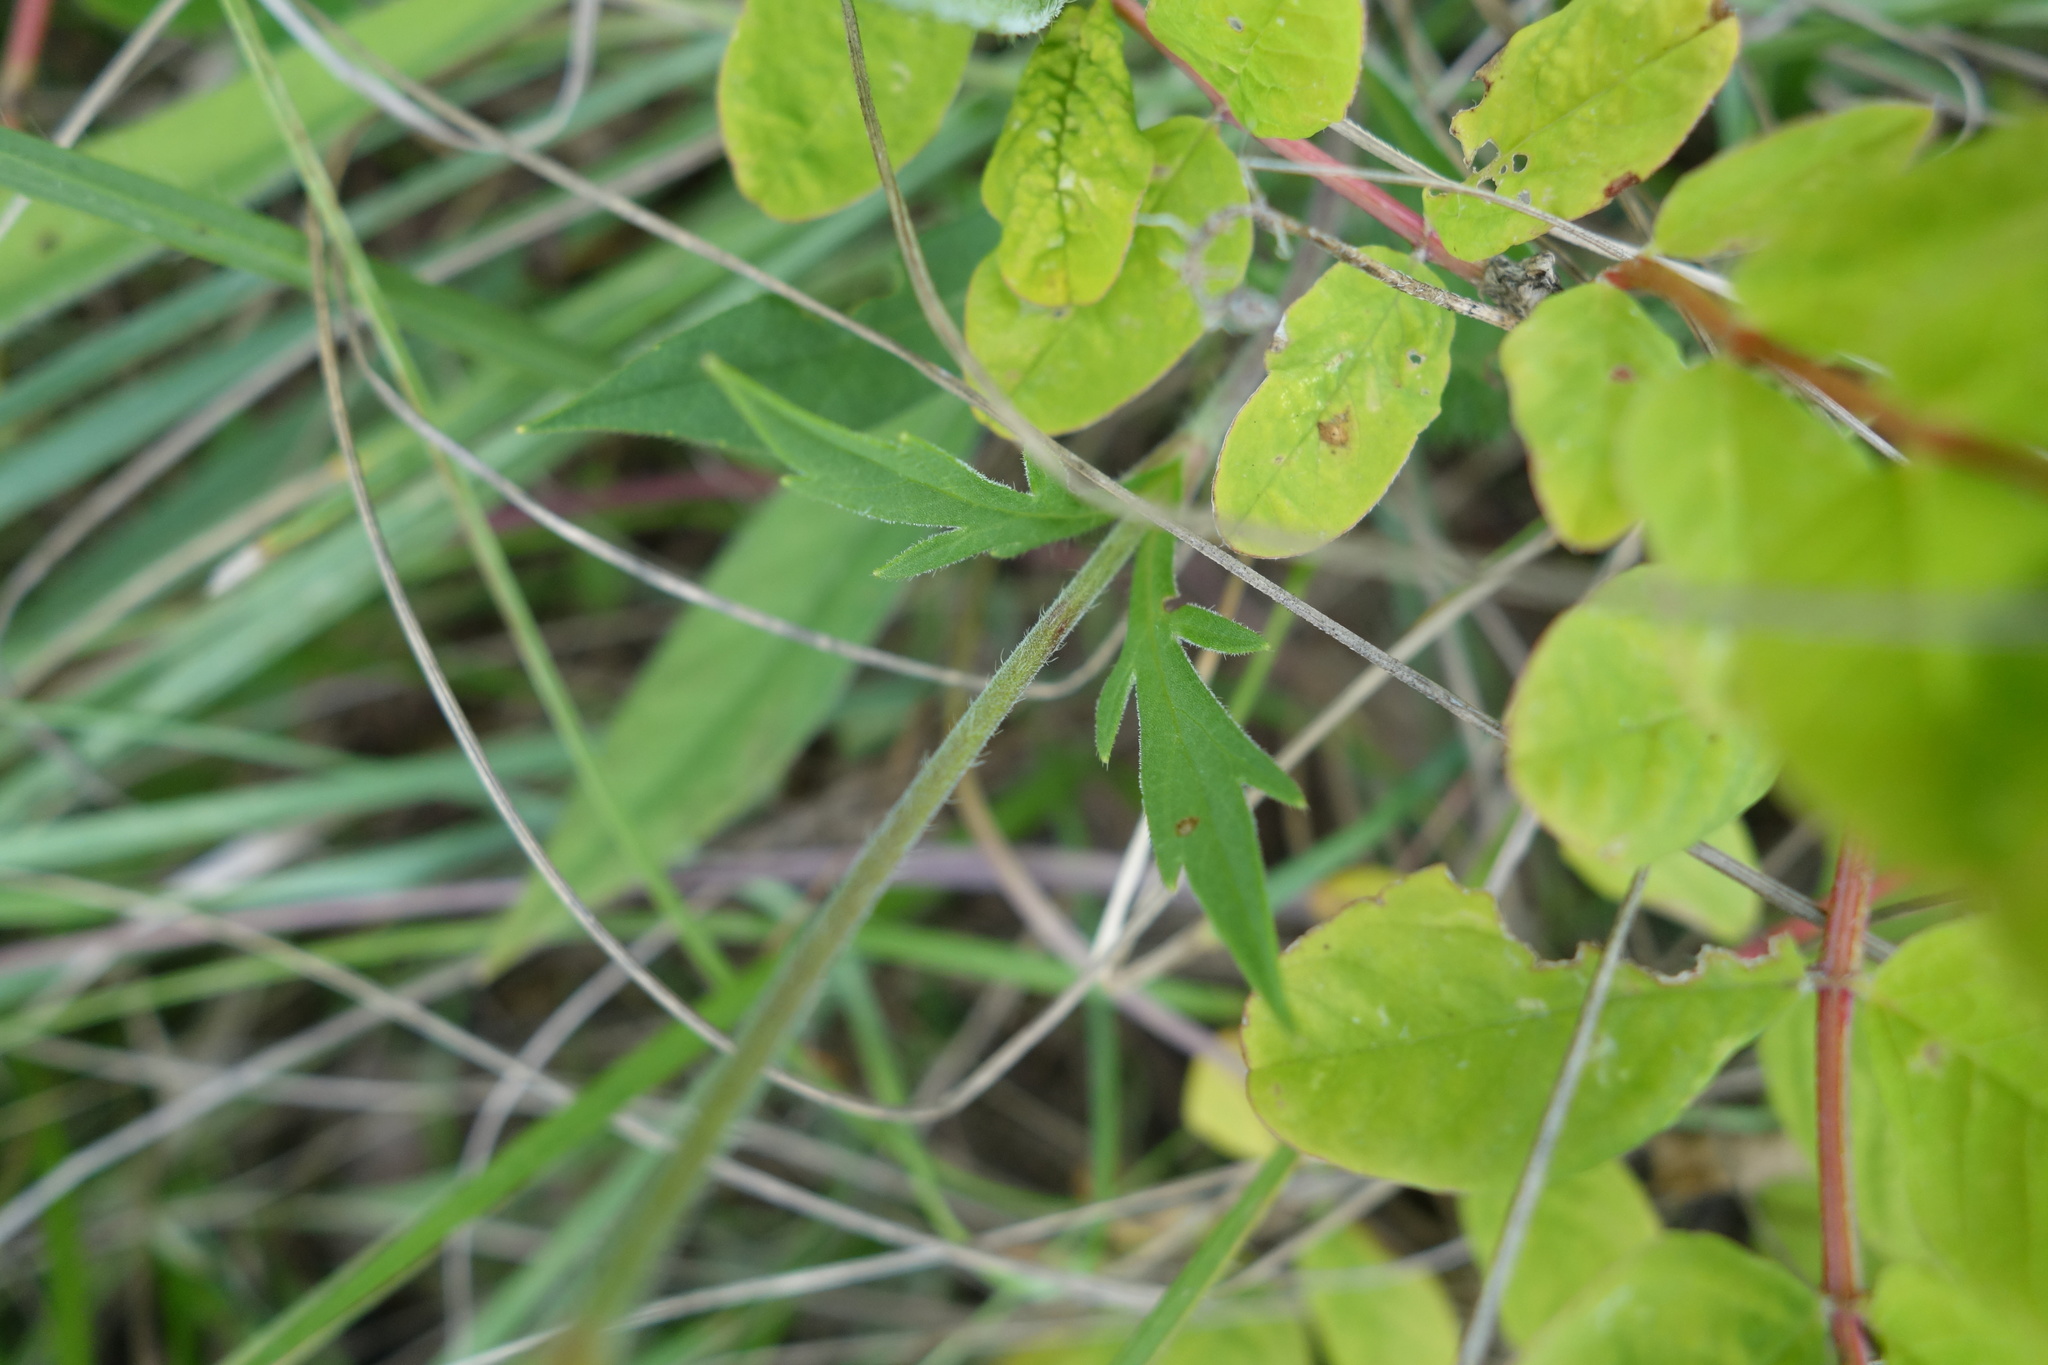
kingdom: Plantae
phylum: Tracheophyta
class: Magnoliopsida
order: Dipsacales
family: Caprifoliaceae
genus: Knautia
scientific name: Knautia arvensis
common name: Field scabiosa
